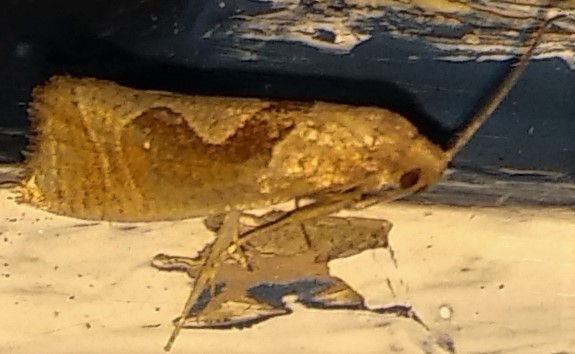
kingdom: Animalia
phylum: Arthropoda
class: Insecta
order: Lepidoptera
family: Tortricidae
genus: Pelochrista
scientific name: Pelochrista similiana
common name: Similar eucosma
